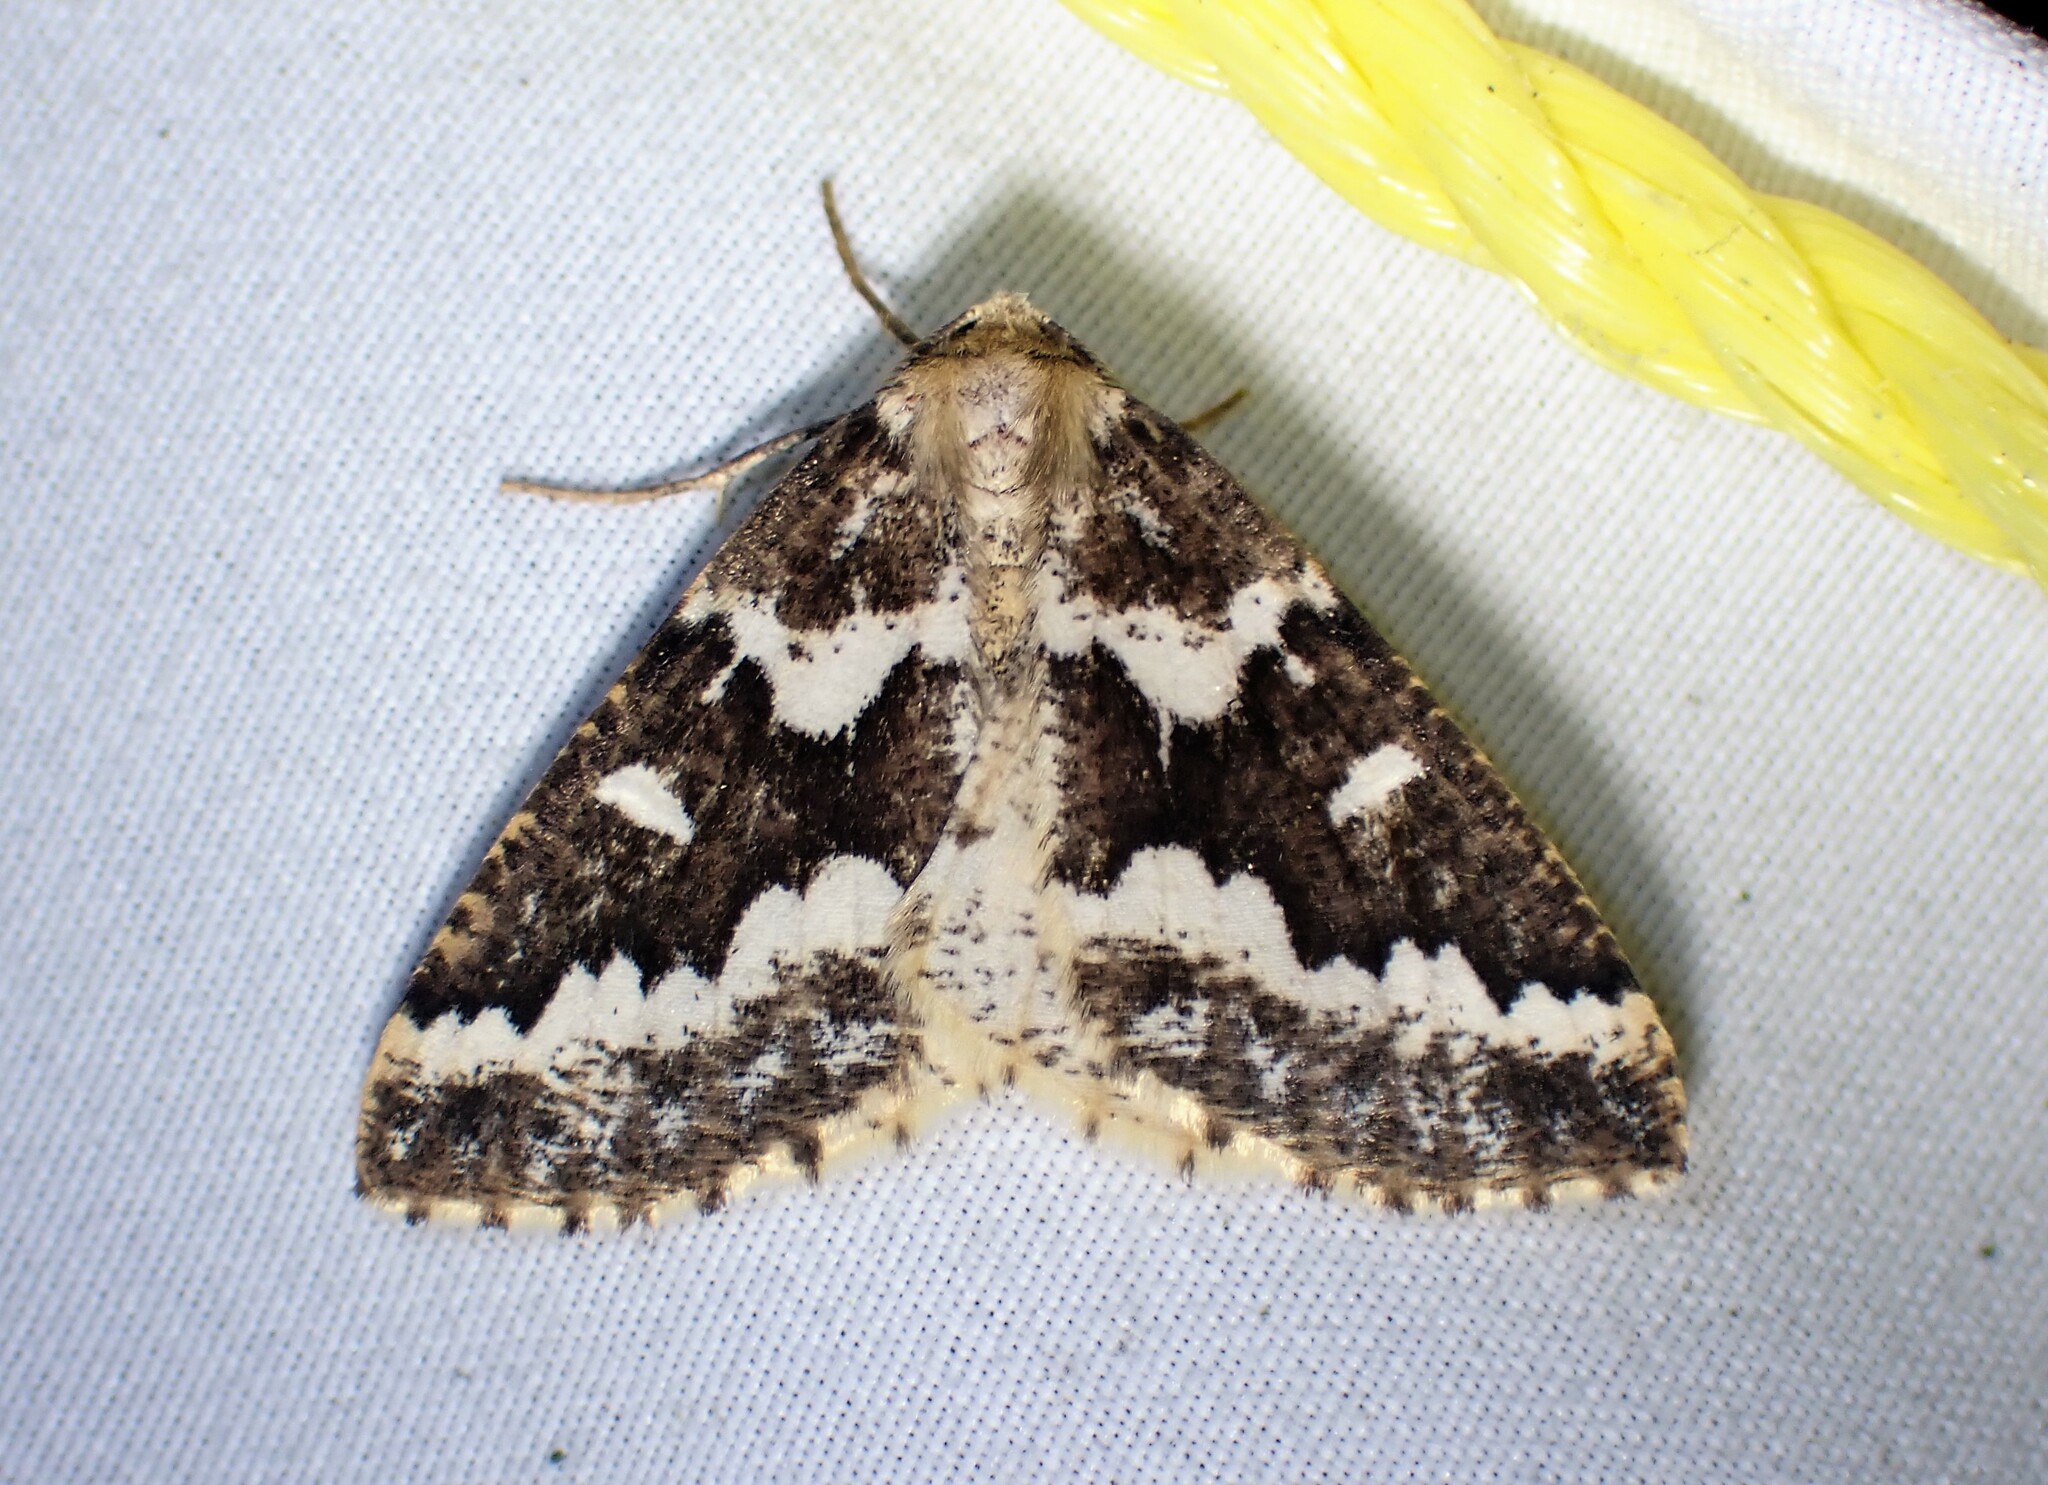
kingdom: Animalia
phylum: Arthropoda
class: Insecta
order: Lepidoptera
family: Geometridae
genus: Caripeta
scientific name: Caripeta divisata
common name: Gray spruce looper
